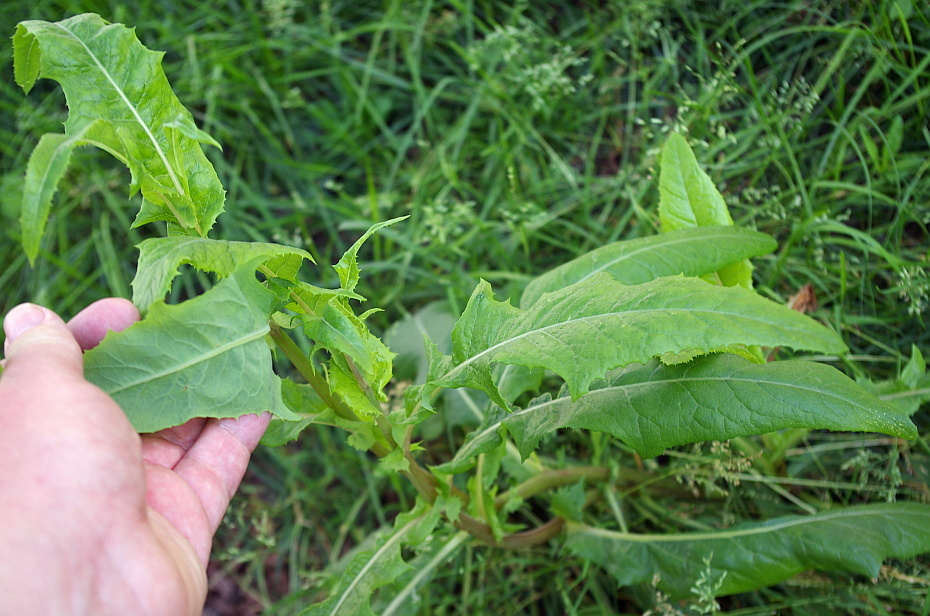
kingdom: Plantae
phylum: Tracheophyta
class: Magnoliopsida
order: Asterales
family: Asteraceae
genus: Sonchus
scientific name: Sonchus arvensis
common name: Perennial sow-thistle
